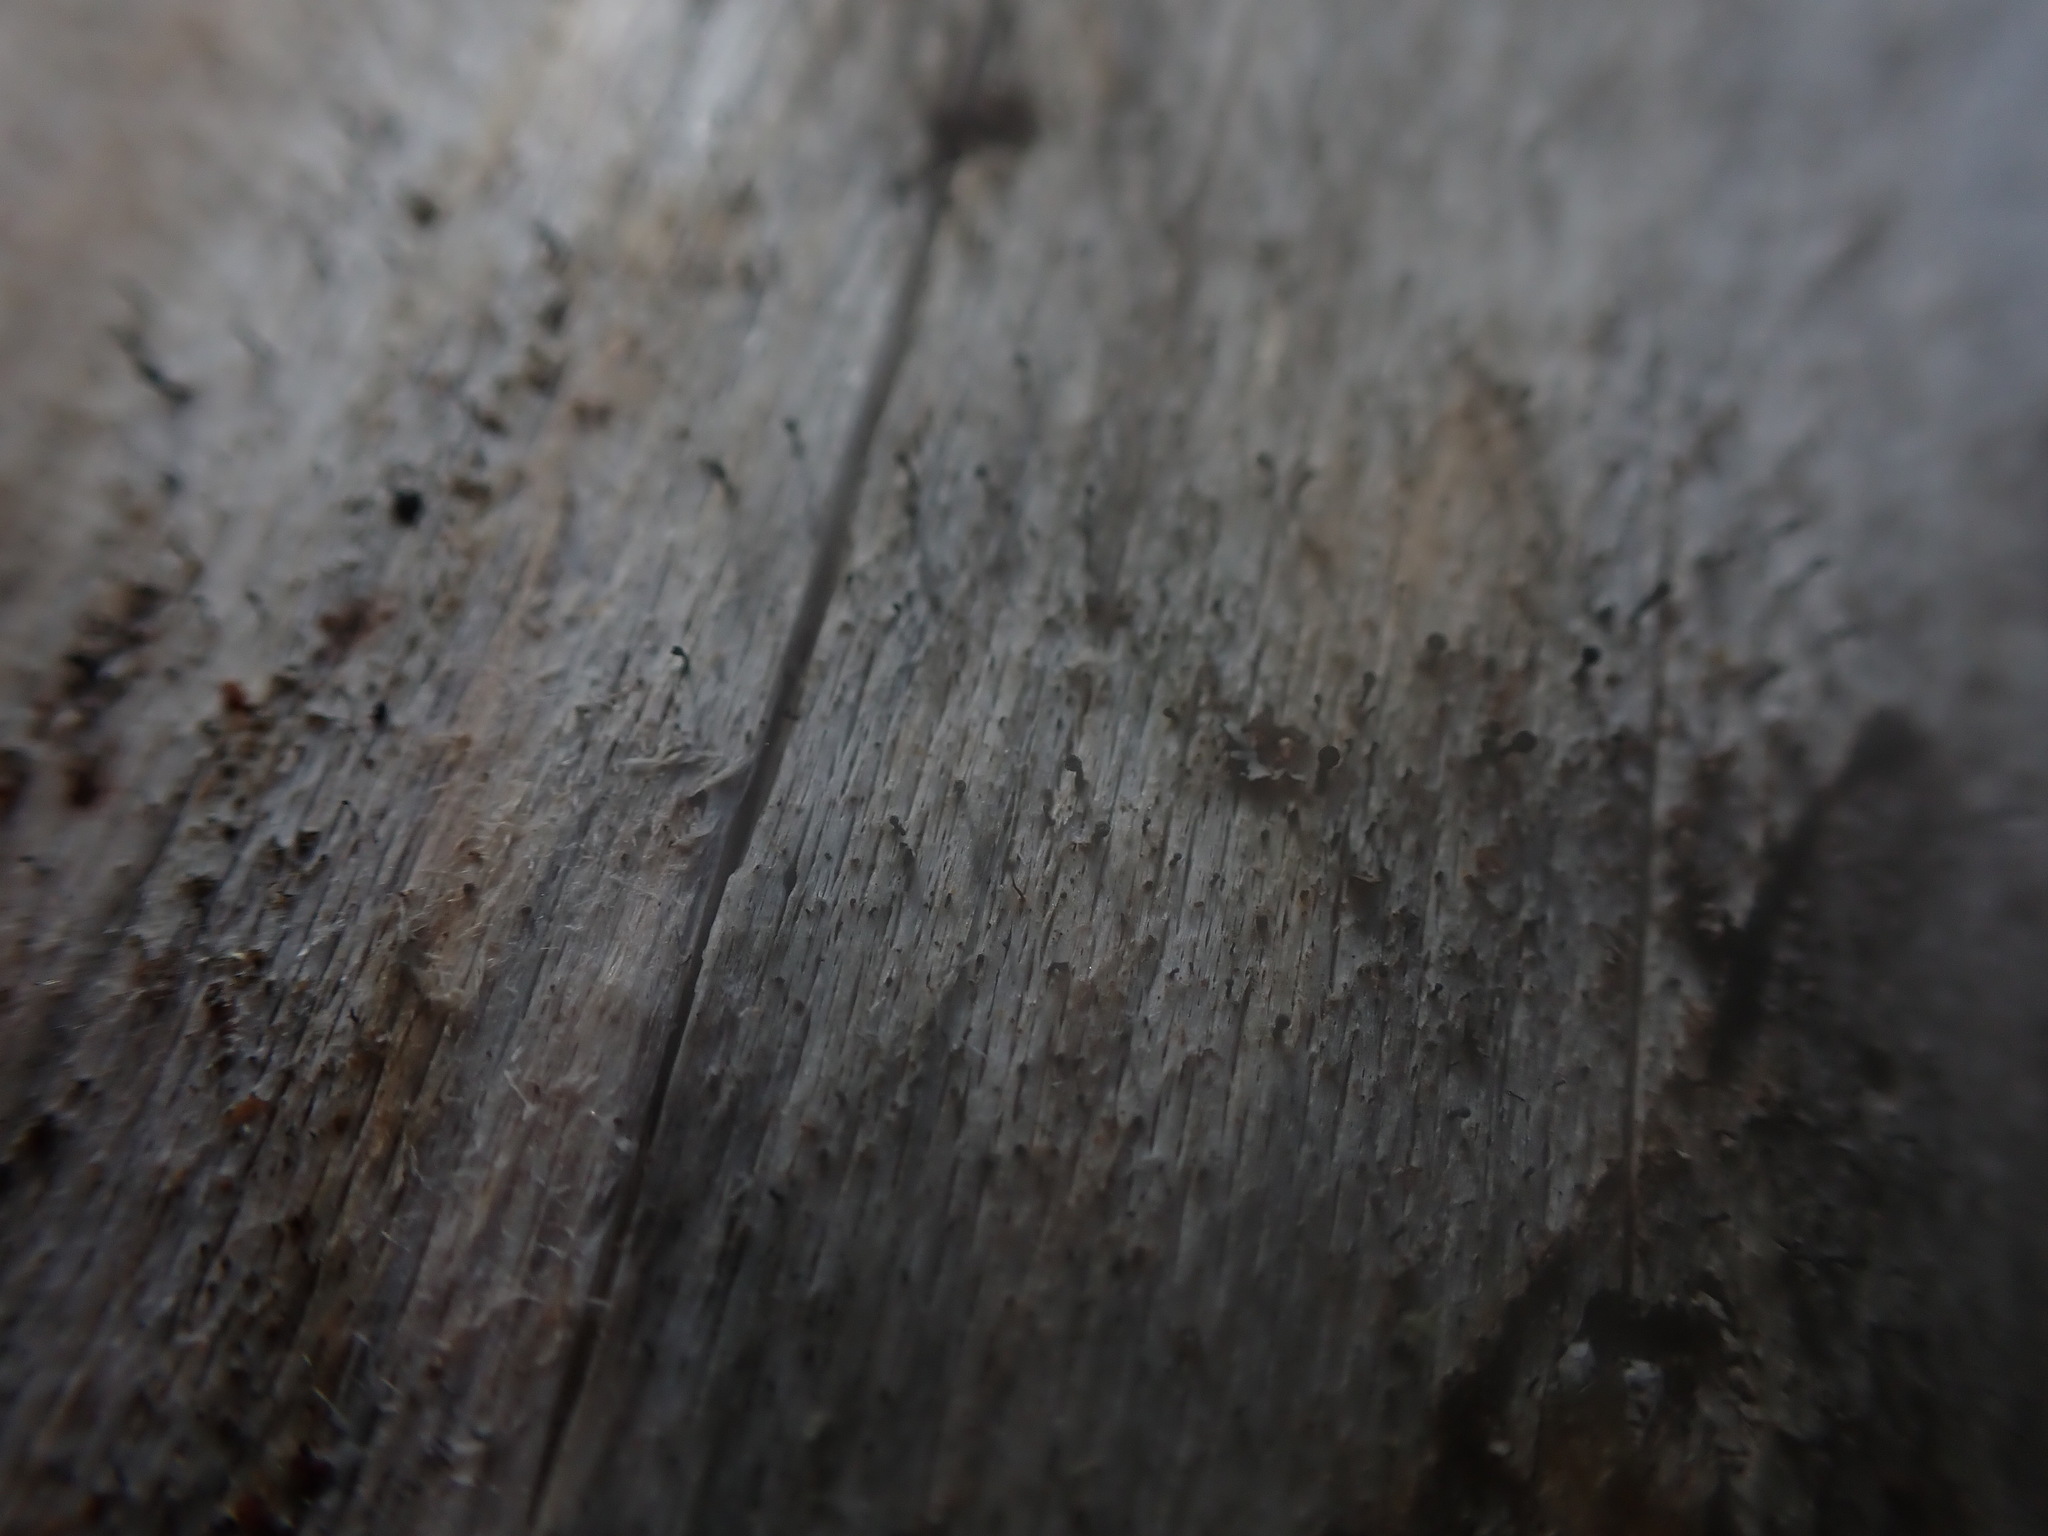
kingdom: Fungi
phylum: Ascomycota
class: Eurotiomycetes
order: Mycocaliciales
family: Mycocaliciaceae
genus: Mycocalicium
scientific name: Mycocalicium subtile
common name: Snag pin lichen
